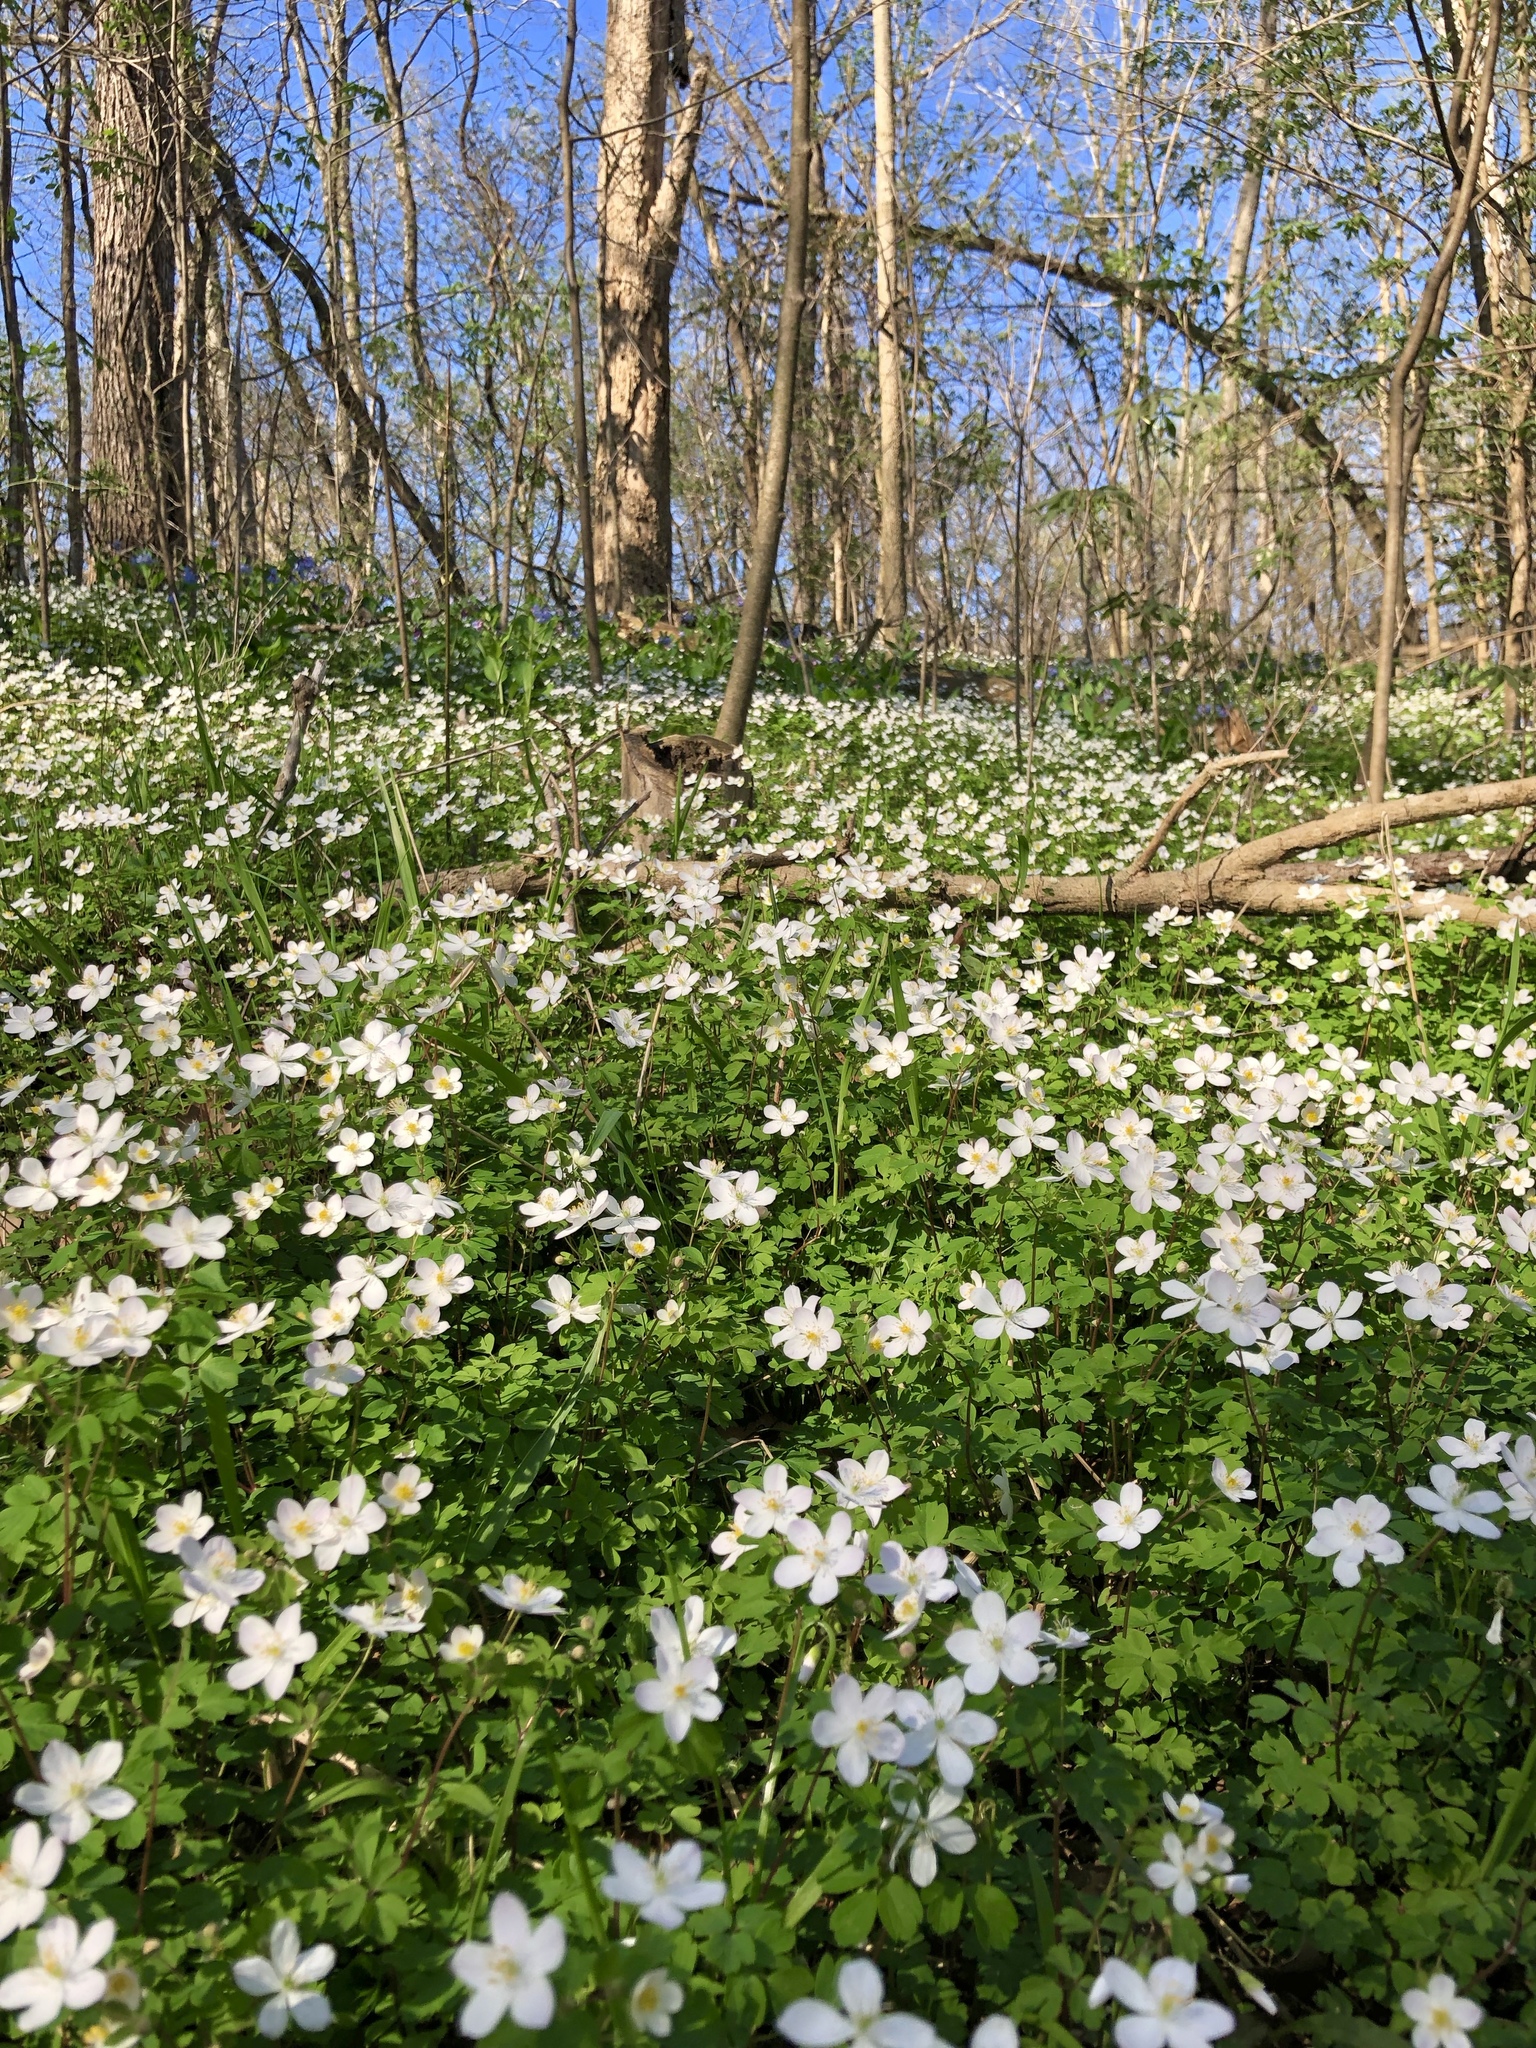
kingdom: Plantae
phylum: Tracheophyta
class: Magnoliopsida
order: Ranunculales
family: Ranunculaceae
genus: Enemion
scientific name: Enemion biternatum
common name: Eastern false rue-anemone
